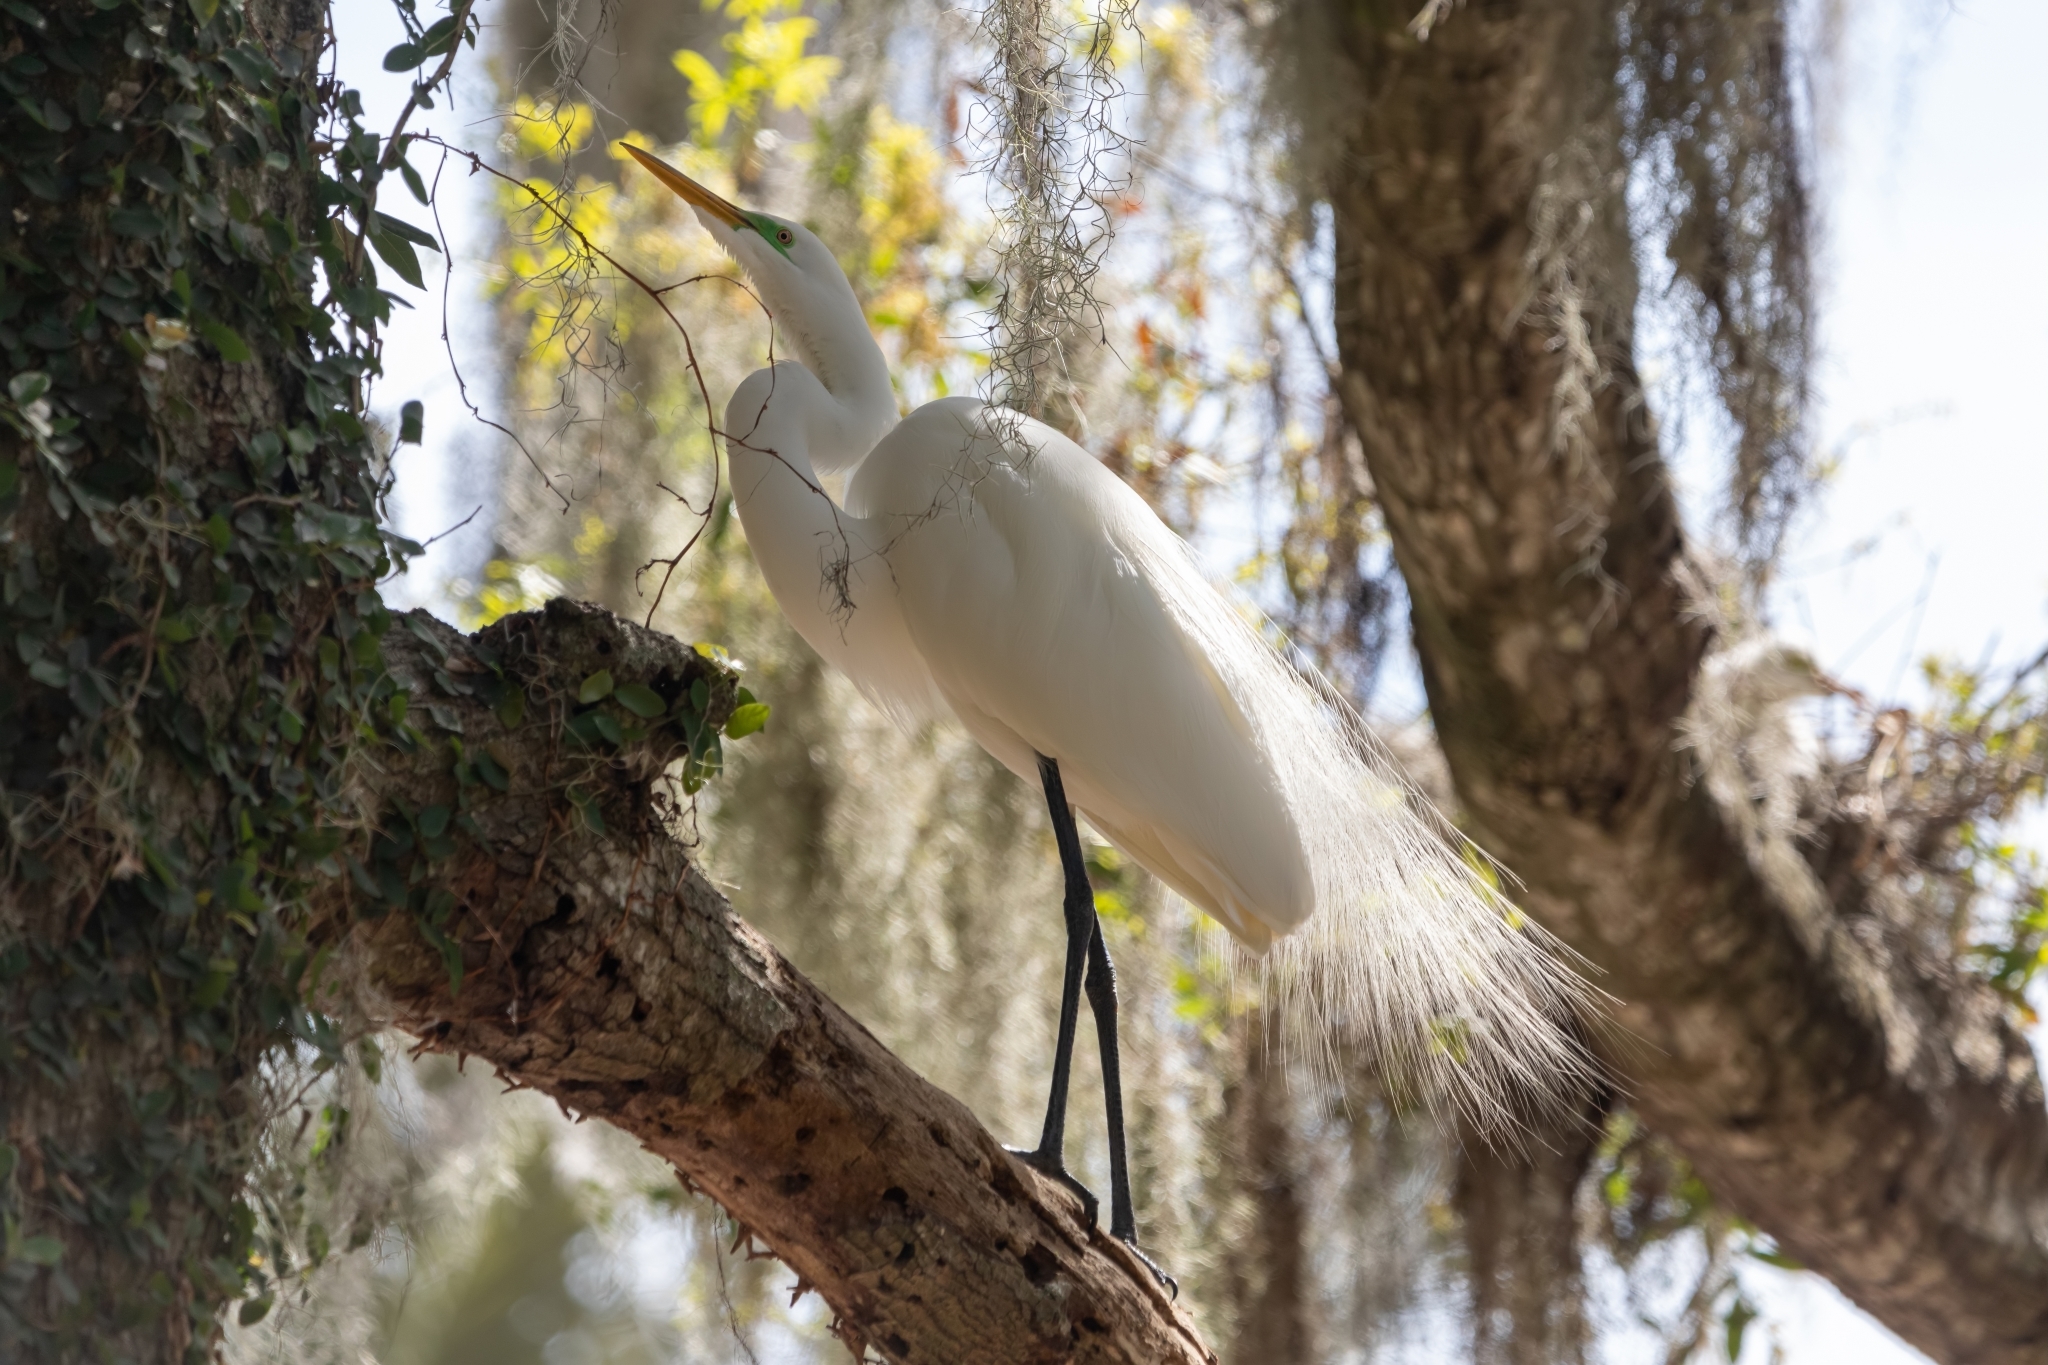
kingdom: Animalia
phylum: Chordata
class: Aves
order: Pelecaniformes
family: Ardeidae
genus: Ardea
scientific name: Ardea alba
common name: Great egret
